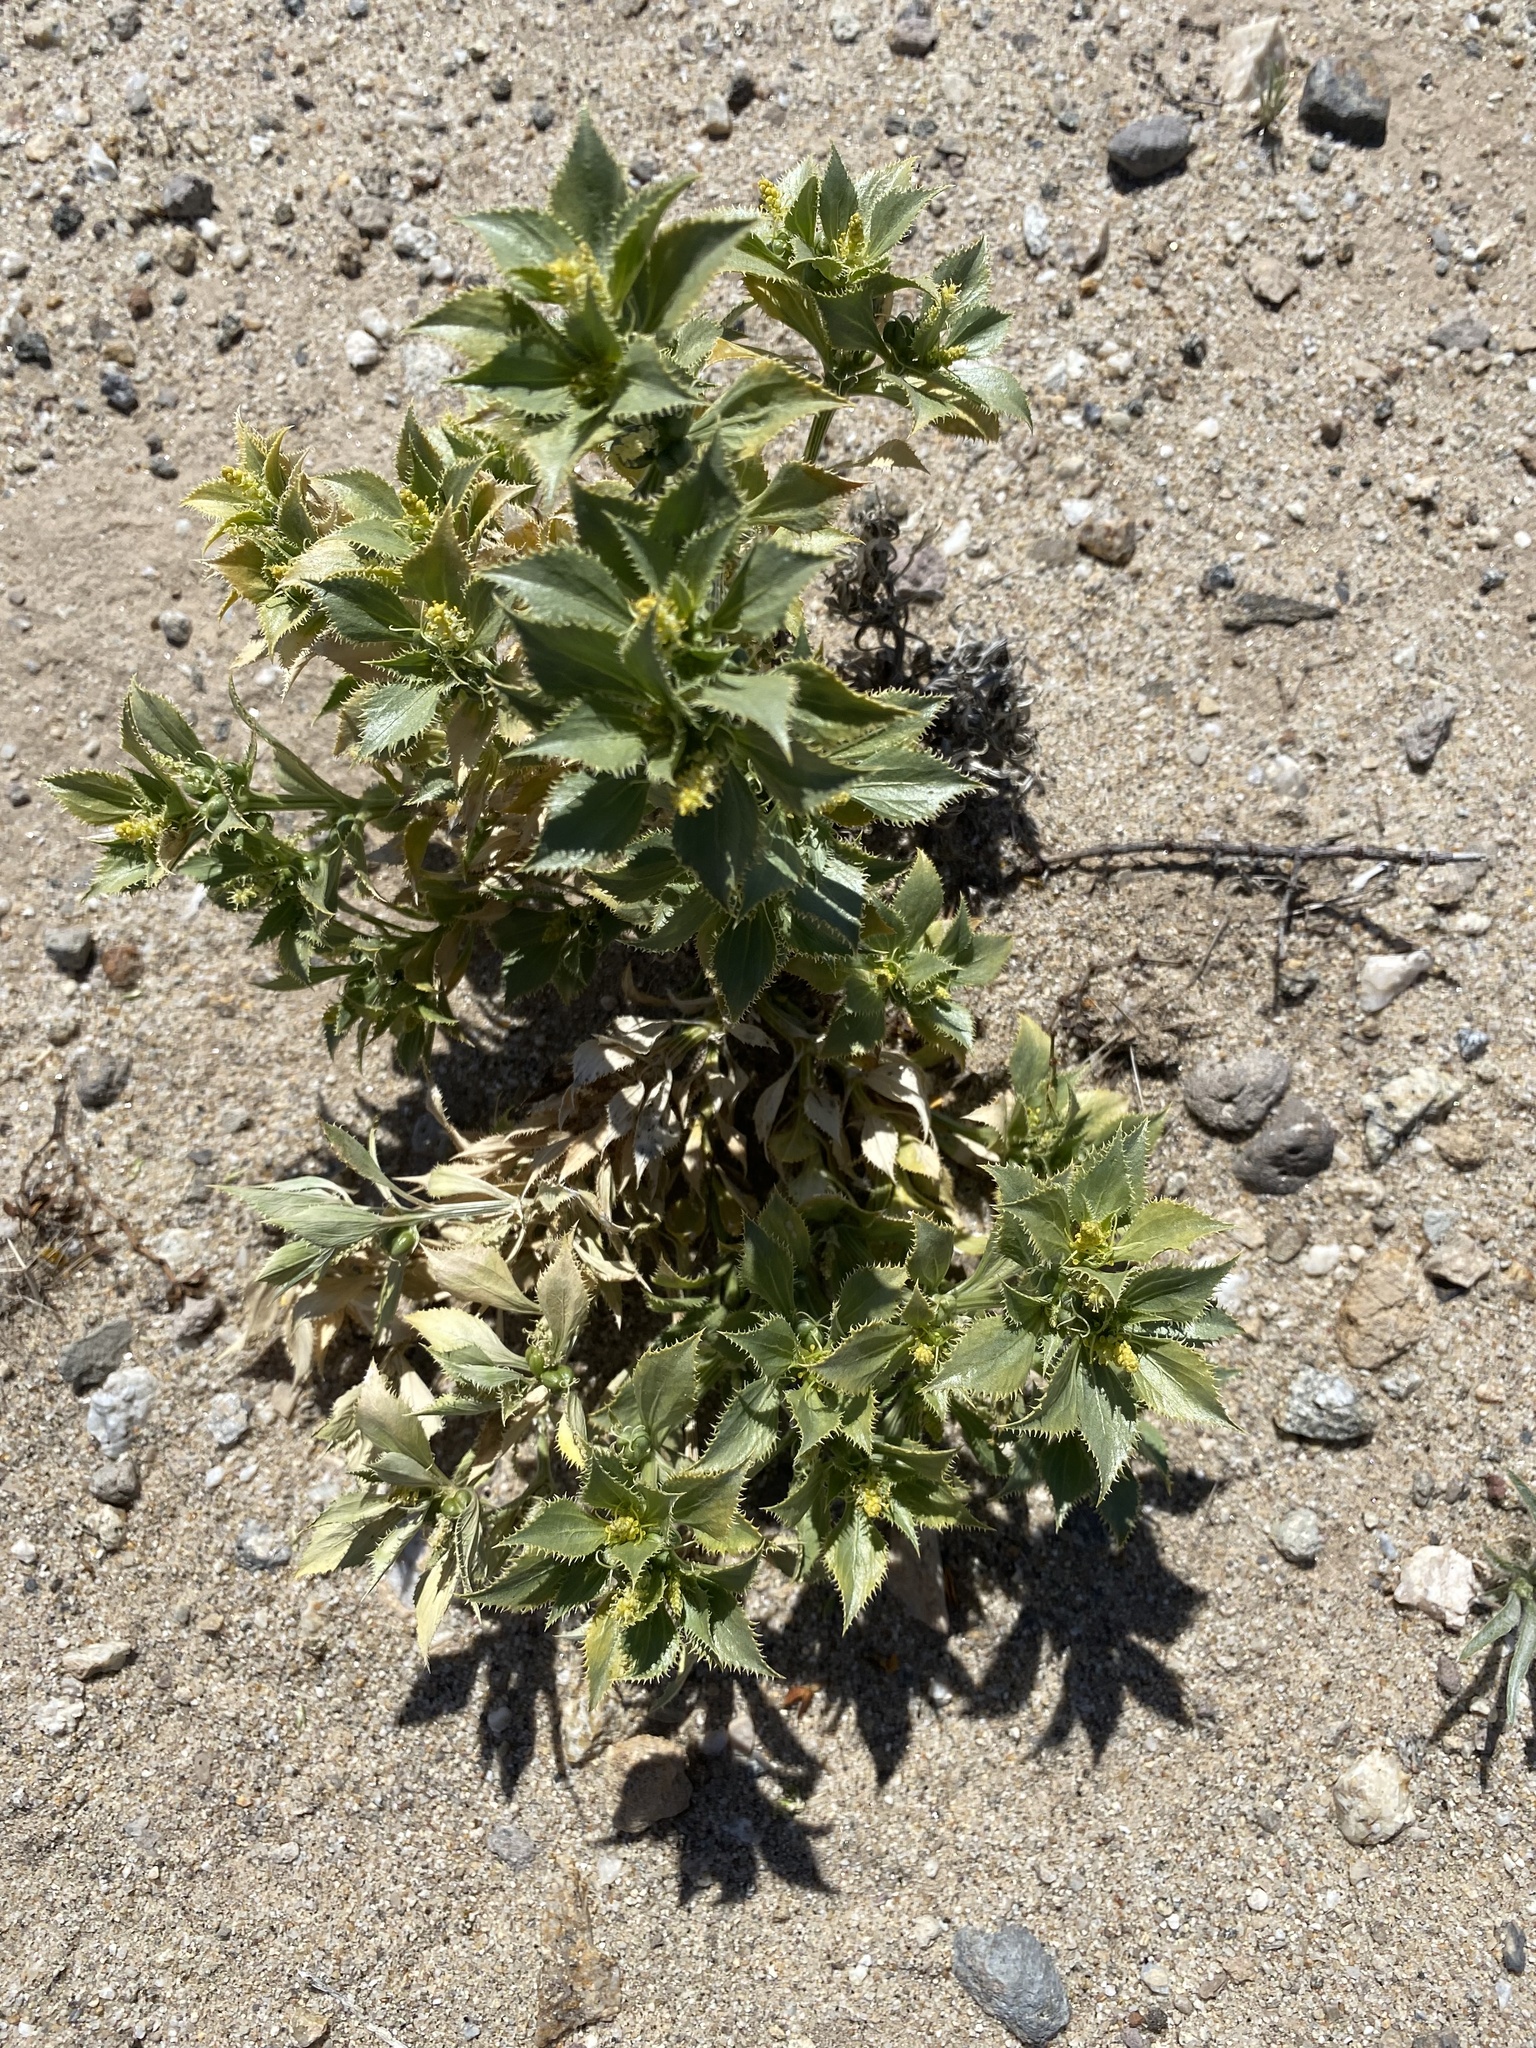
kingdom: Plantae
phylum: Tracheophyta
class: Magnoliopsida
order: Malpighiales
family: Euphorbiaceae
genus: Stillingia
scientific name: Stillingia spinulosa
